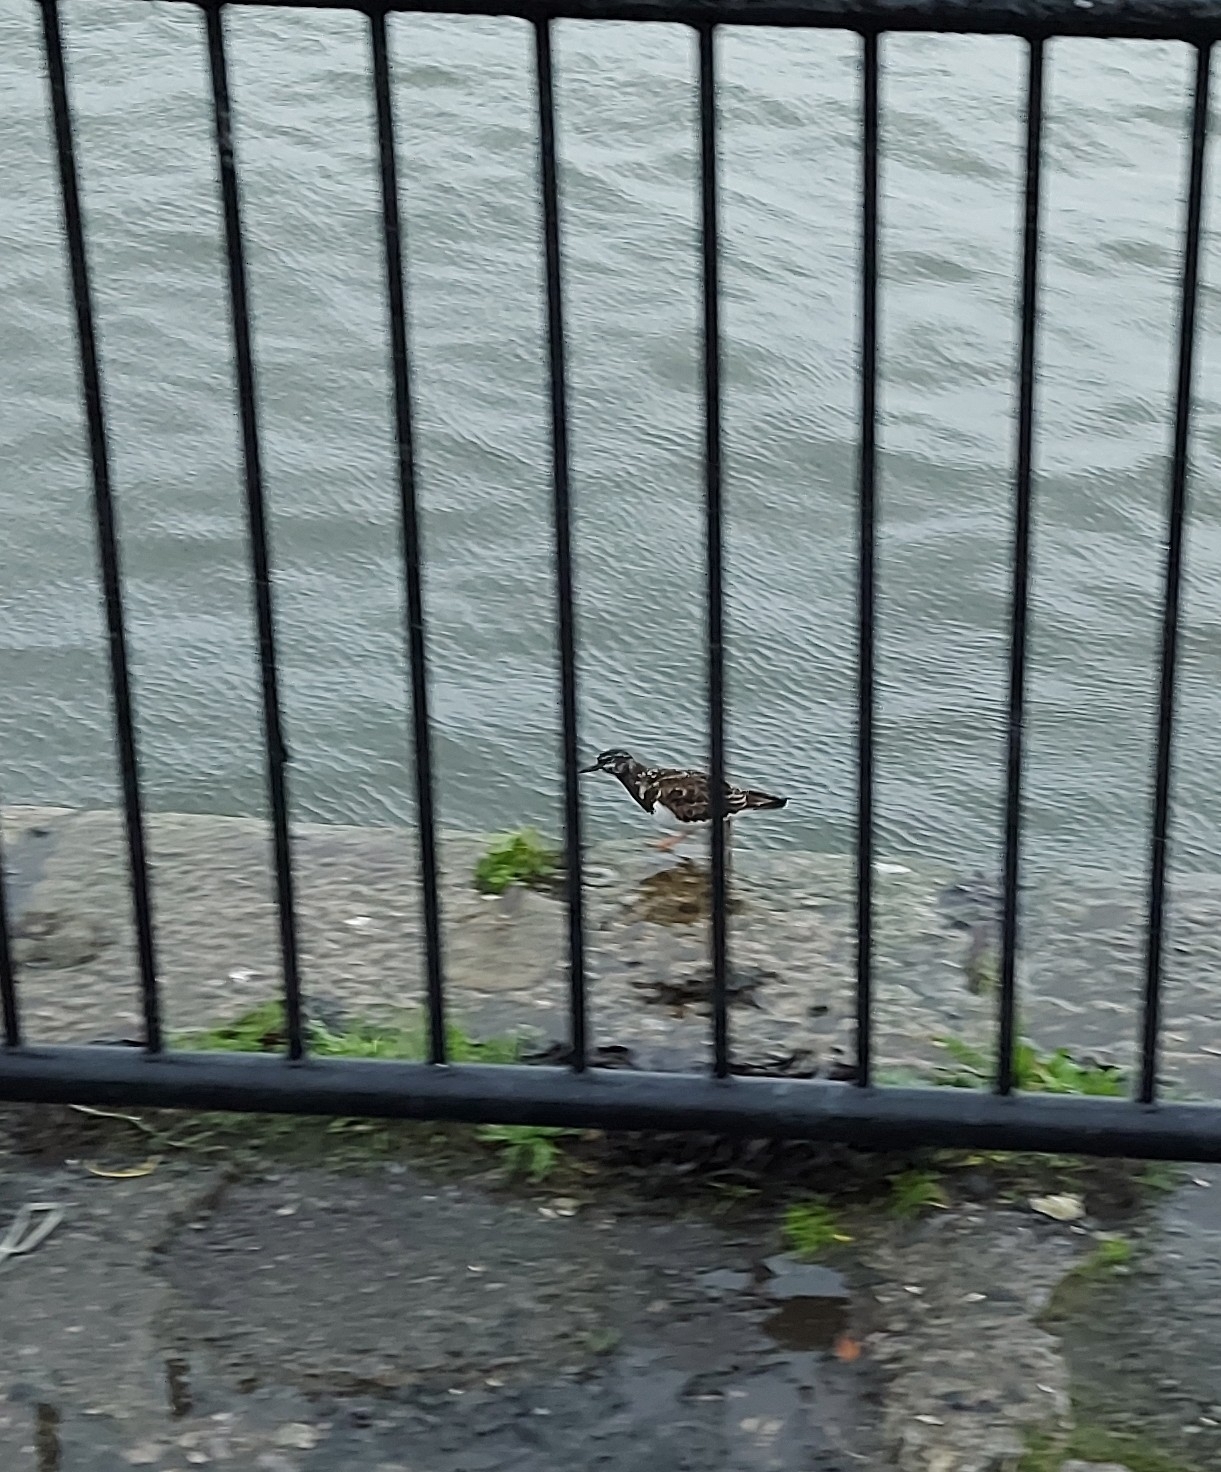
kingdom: Animalia
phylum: Chordata
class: Aves
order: Charadriiformes
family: Scolopacidae
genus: Arenaria
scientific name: Arenaria interpres
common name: Ruddy turnstone
